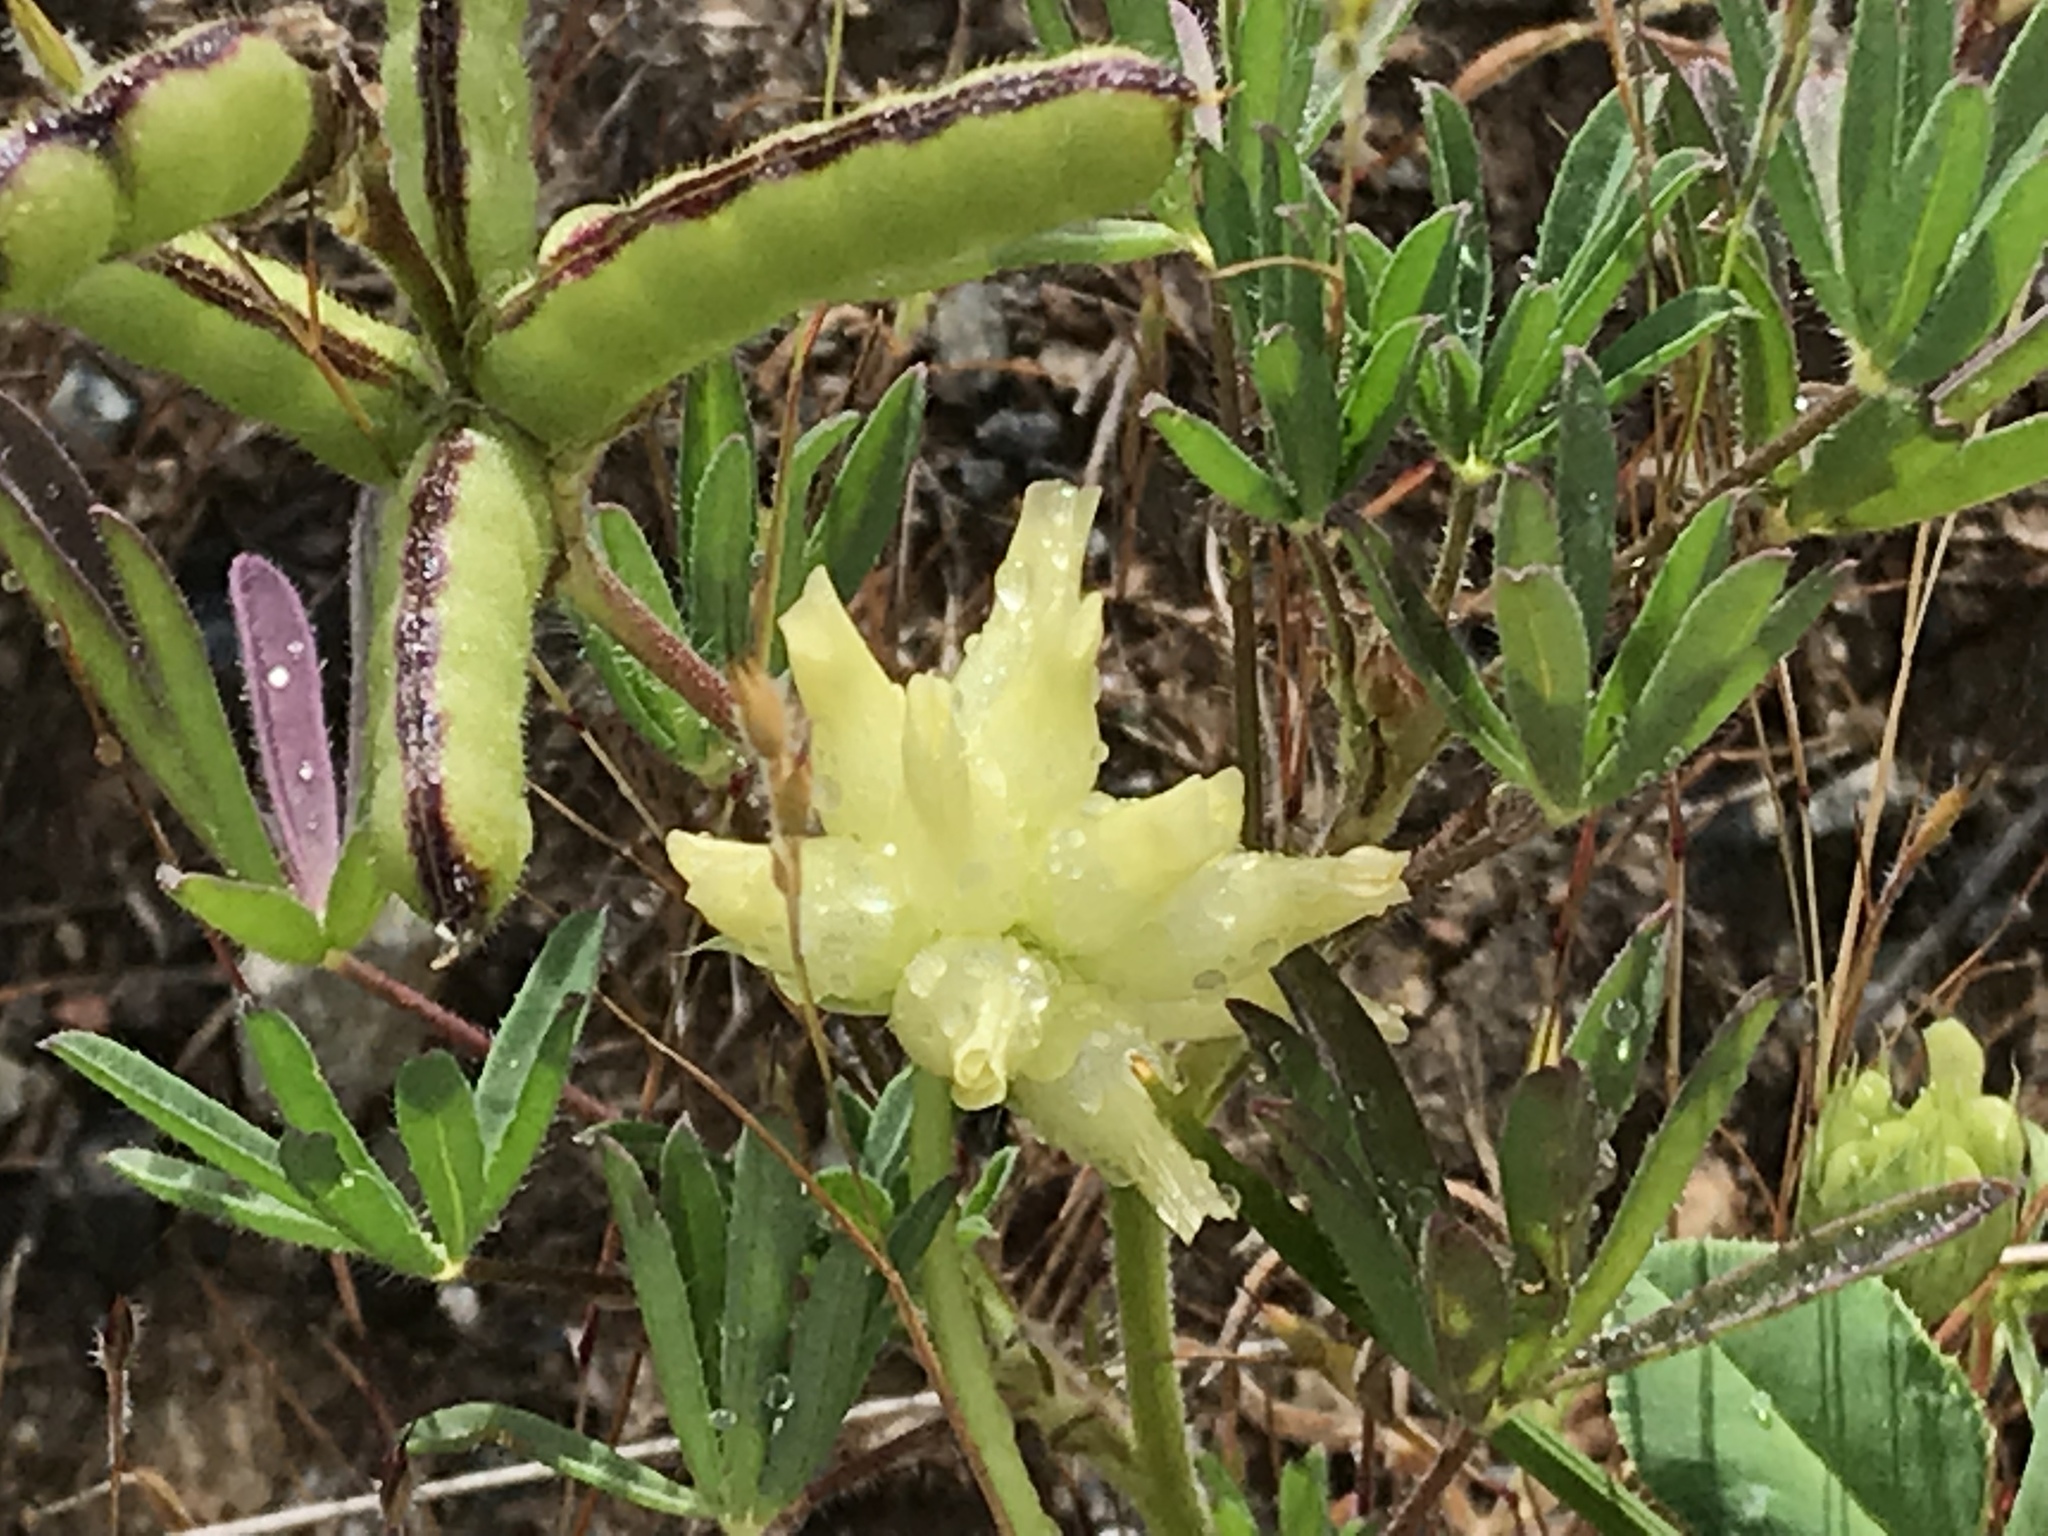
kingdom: Plantae
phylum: Tracheophyta
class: Magnoliopsida
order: Fabales
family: Fabaceae
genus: Trifolium
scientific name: Trifolium fucatum
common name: Puff clover
